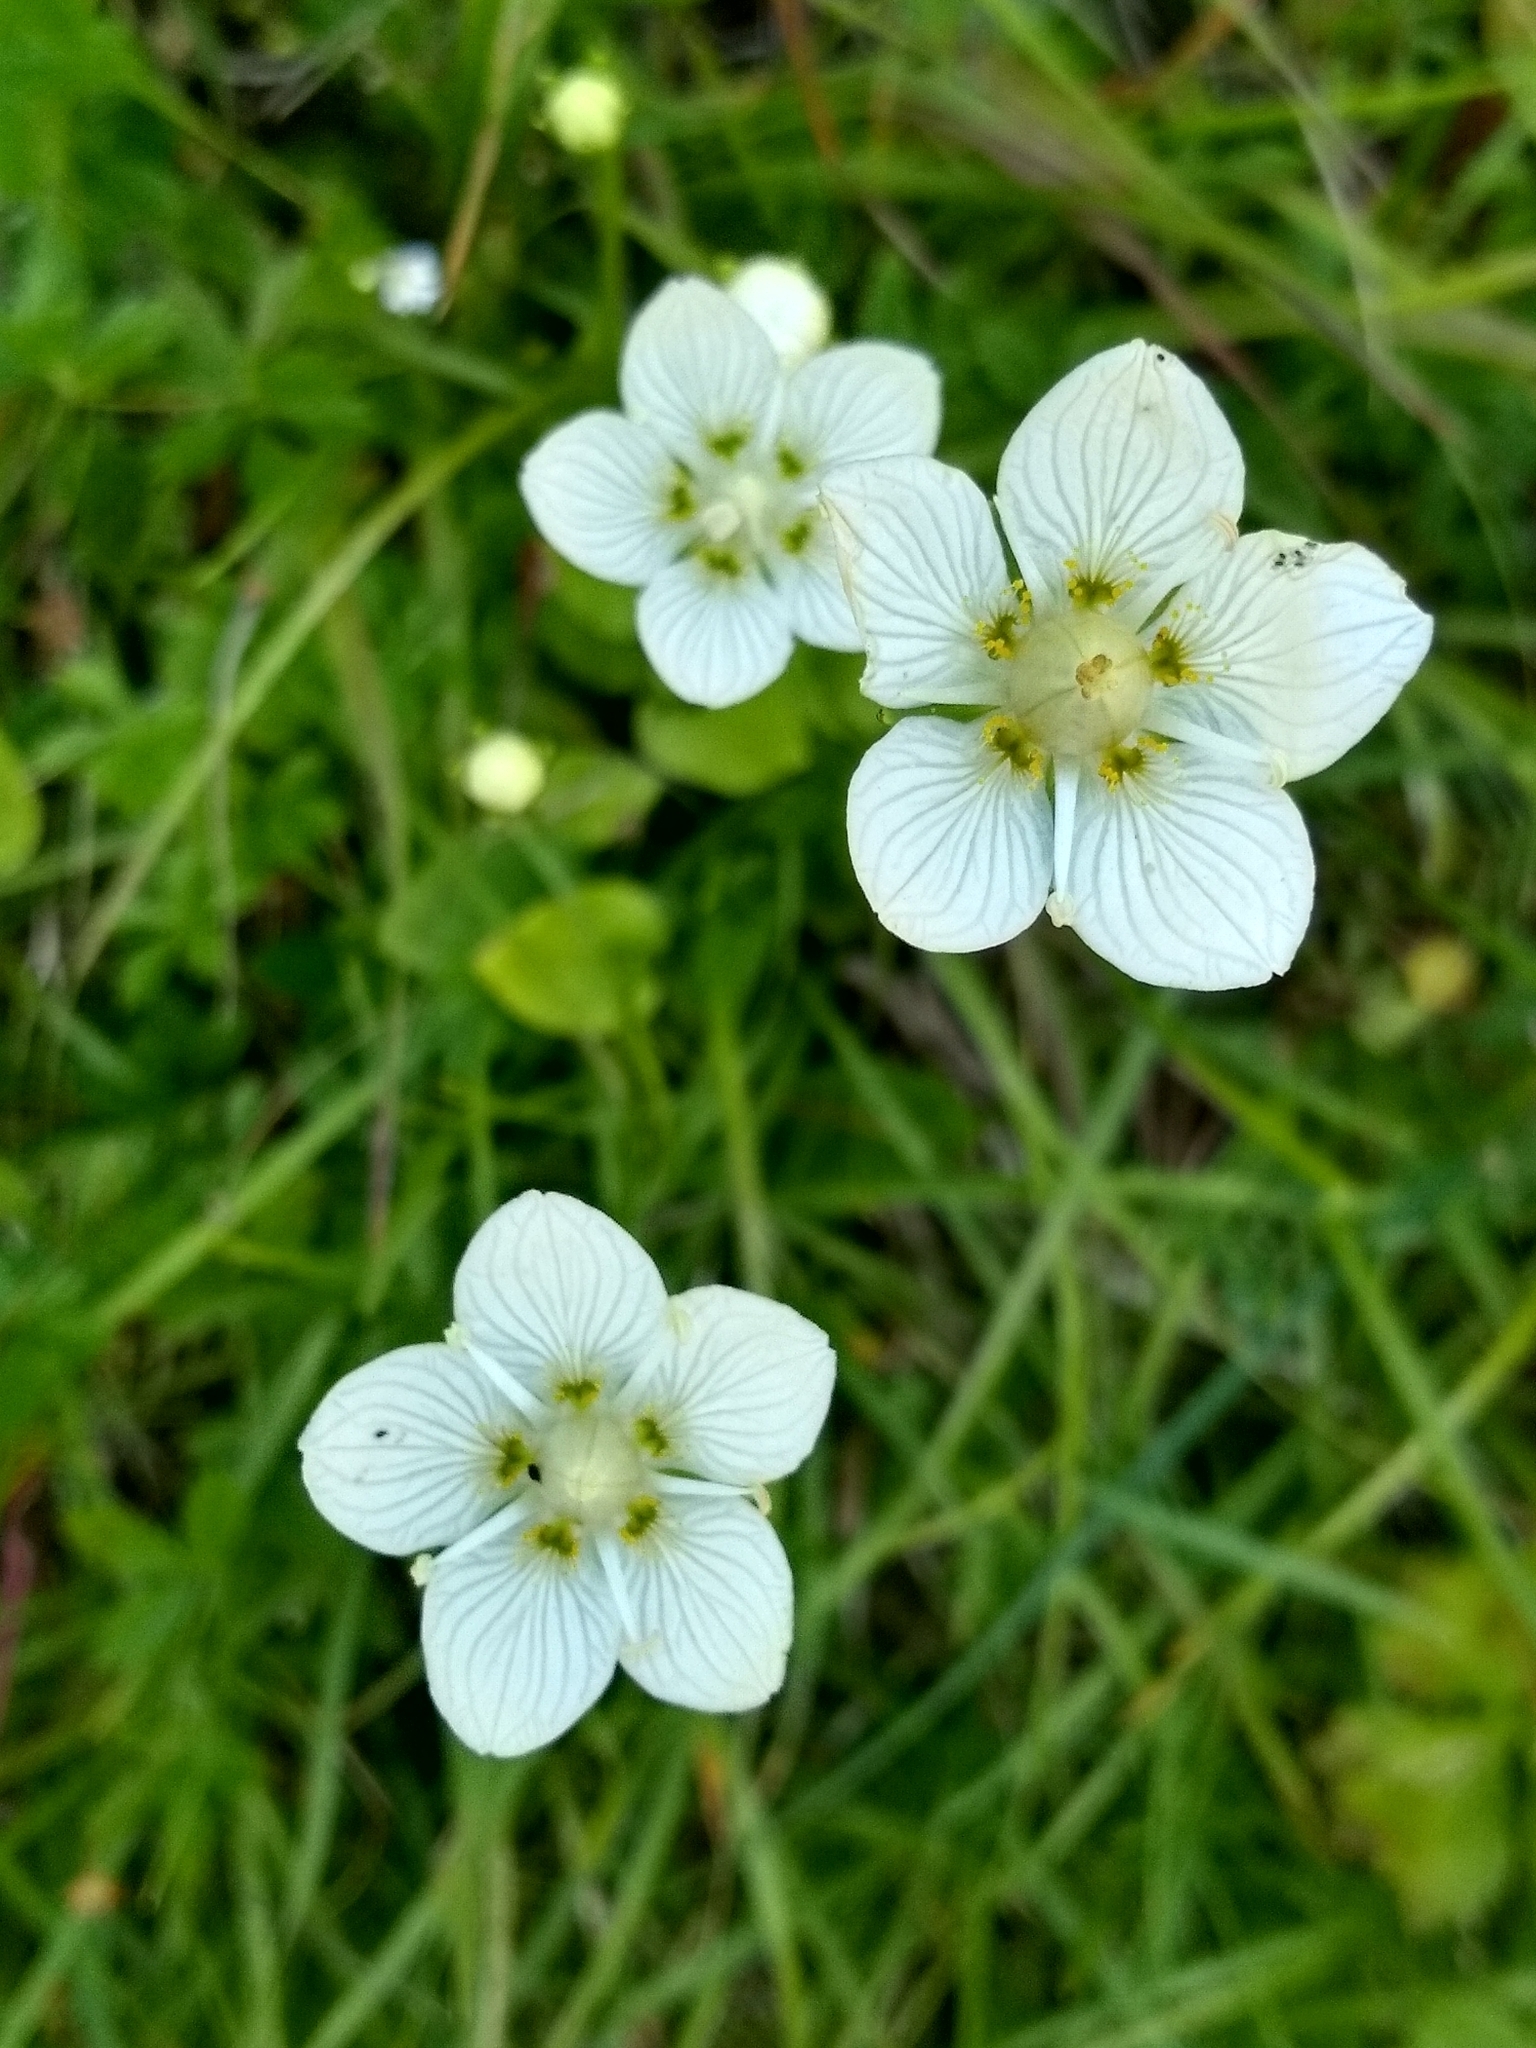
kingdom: Plantae
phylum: Tracheophyta
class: Magnoliopsida
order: Celastrales
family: Parnassiaceae
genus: Parnassia
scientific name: Parnassia palustris
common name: Grass-of-parnassus
